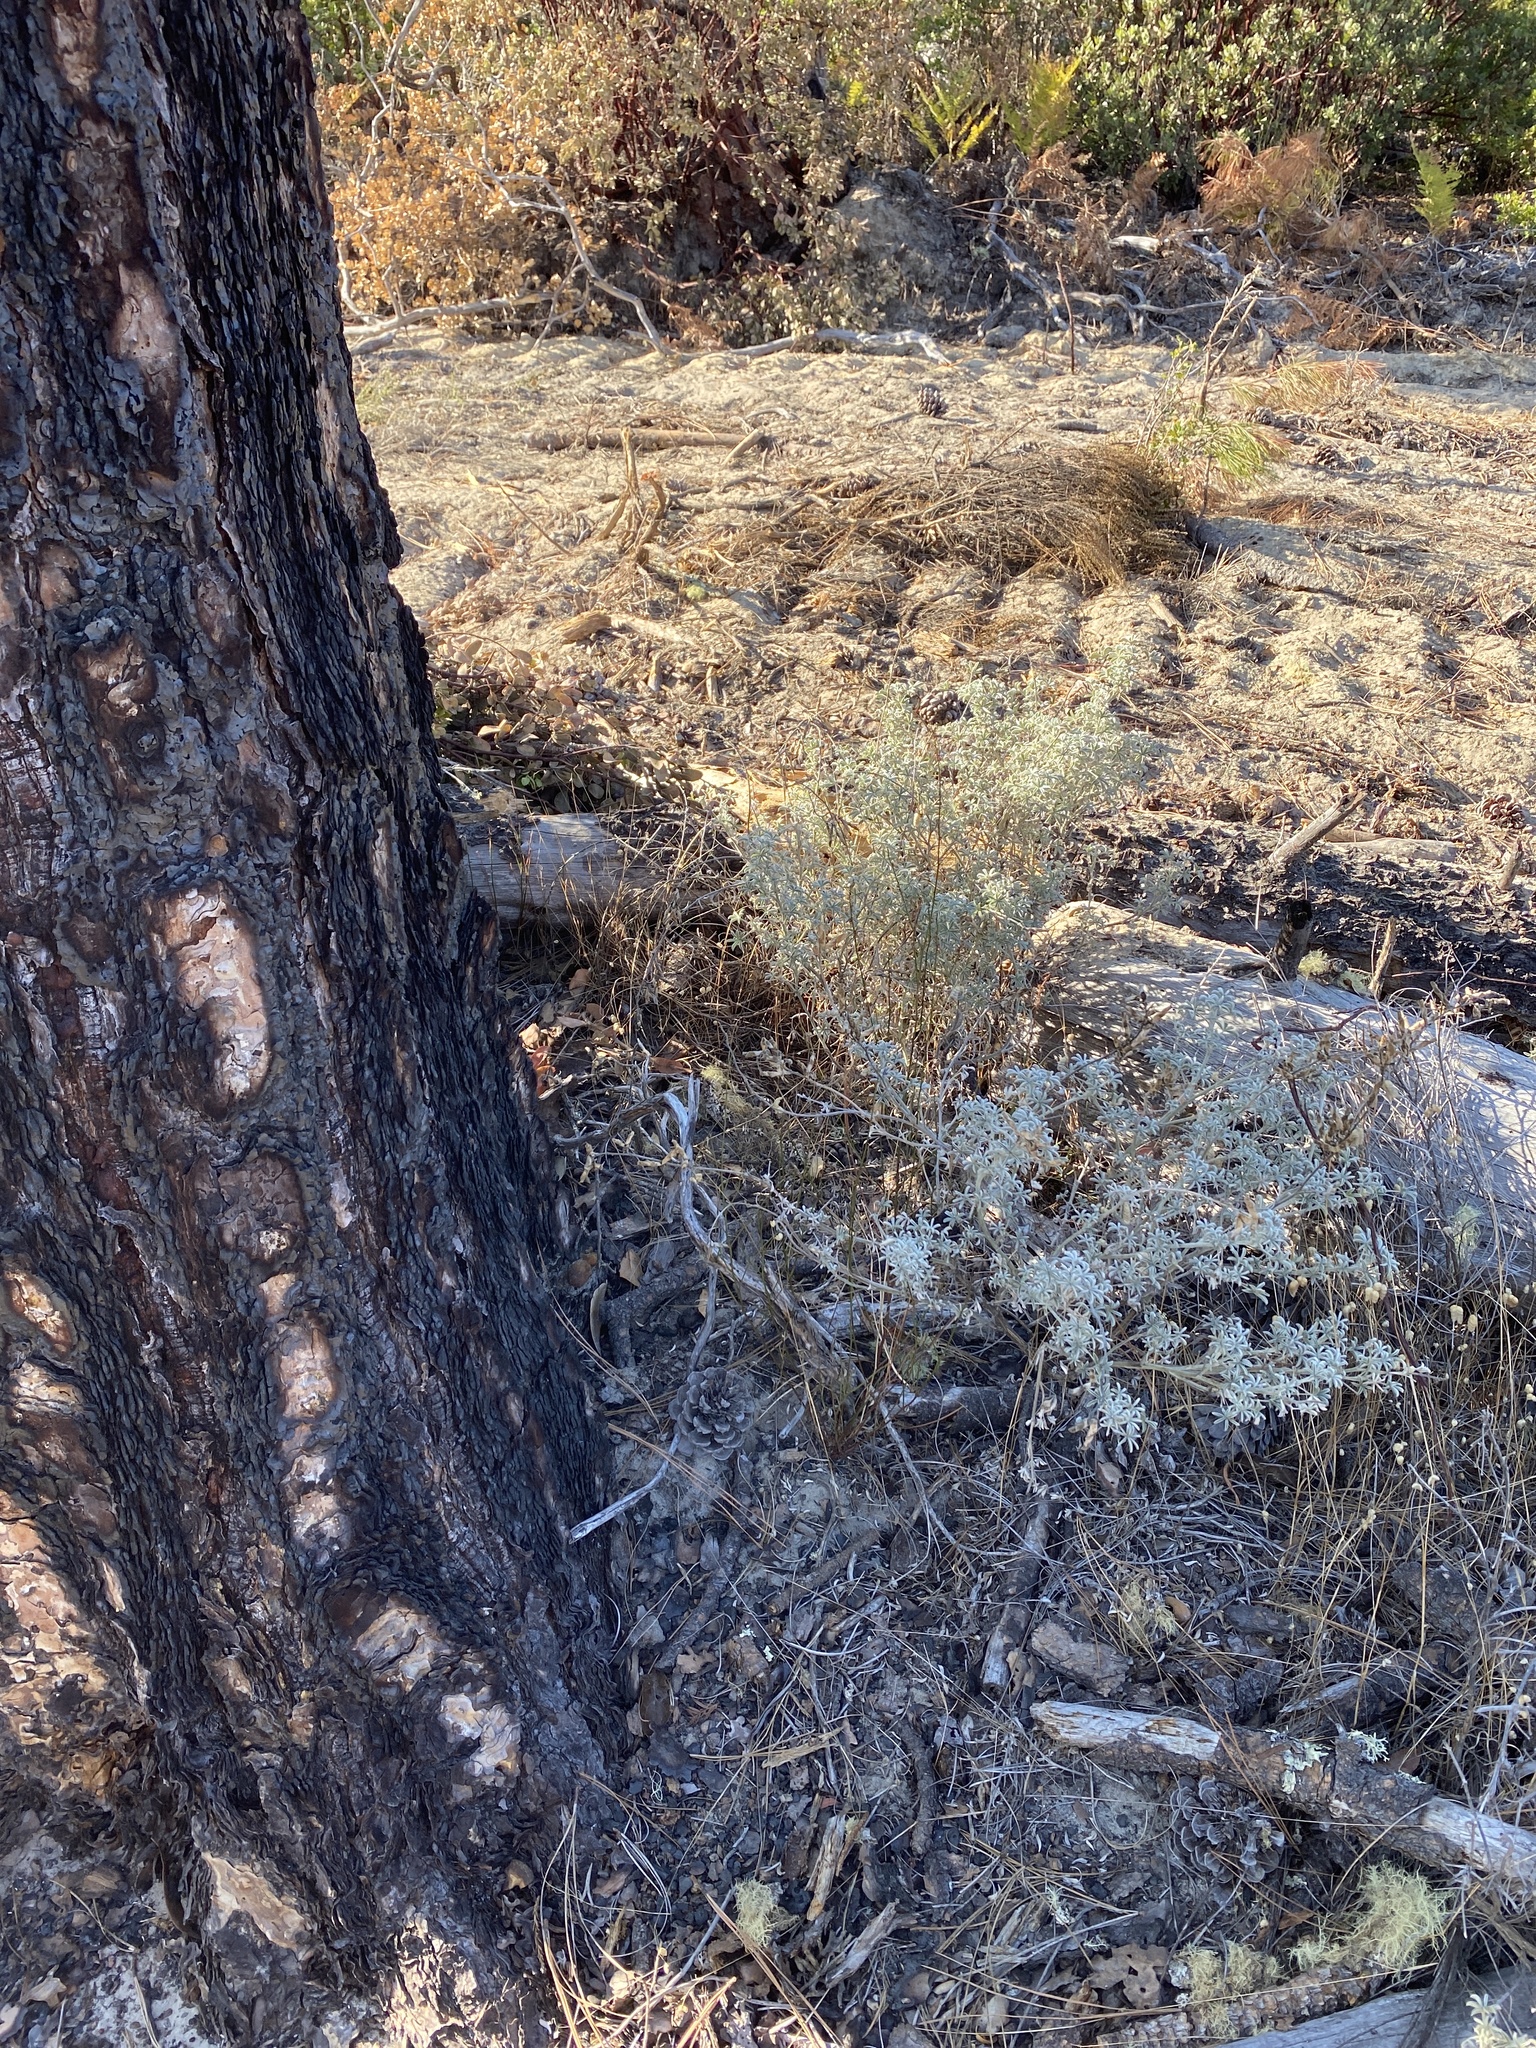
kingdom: Plantae
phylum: Tracheophyta
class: Magnoliopsida
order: Fabales
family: Fabaceae
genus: Lupinus
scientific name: Lupinus albifrons
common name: Foothill lupine
